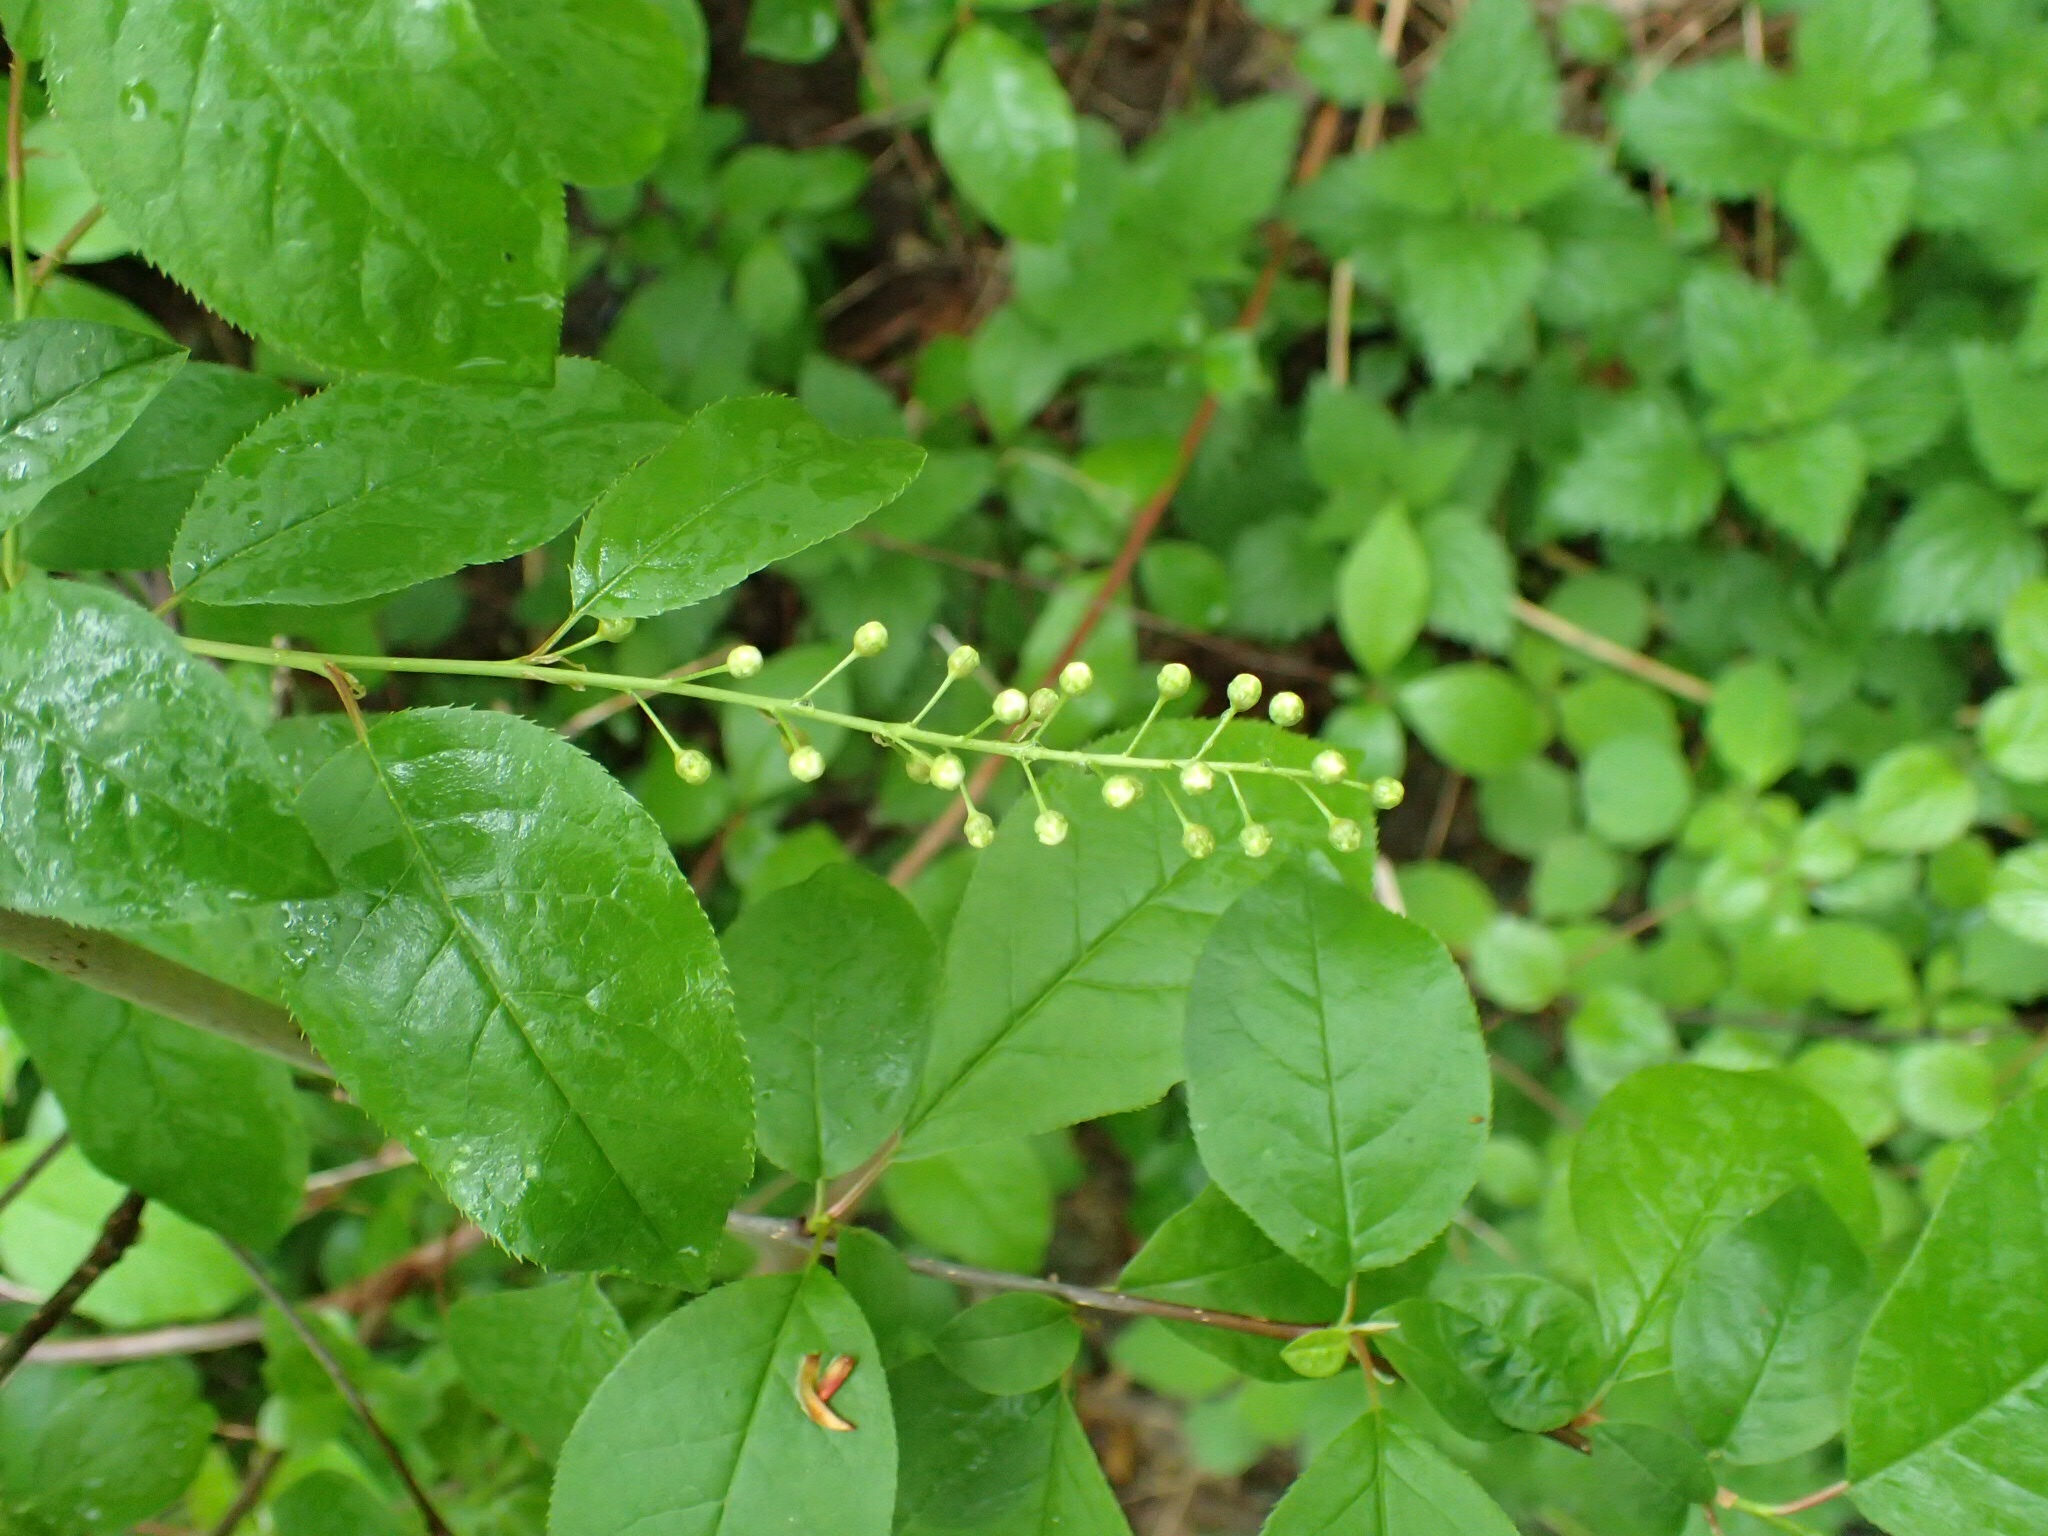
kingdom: Plantae
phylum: Tracheophyta
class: Magnoliopsida
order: Rosales
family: Rosaceae
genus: Prunus
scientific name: Prunus virginiana
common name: Chokecherry
